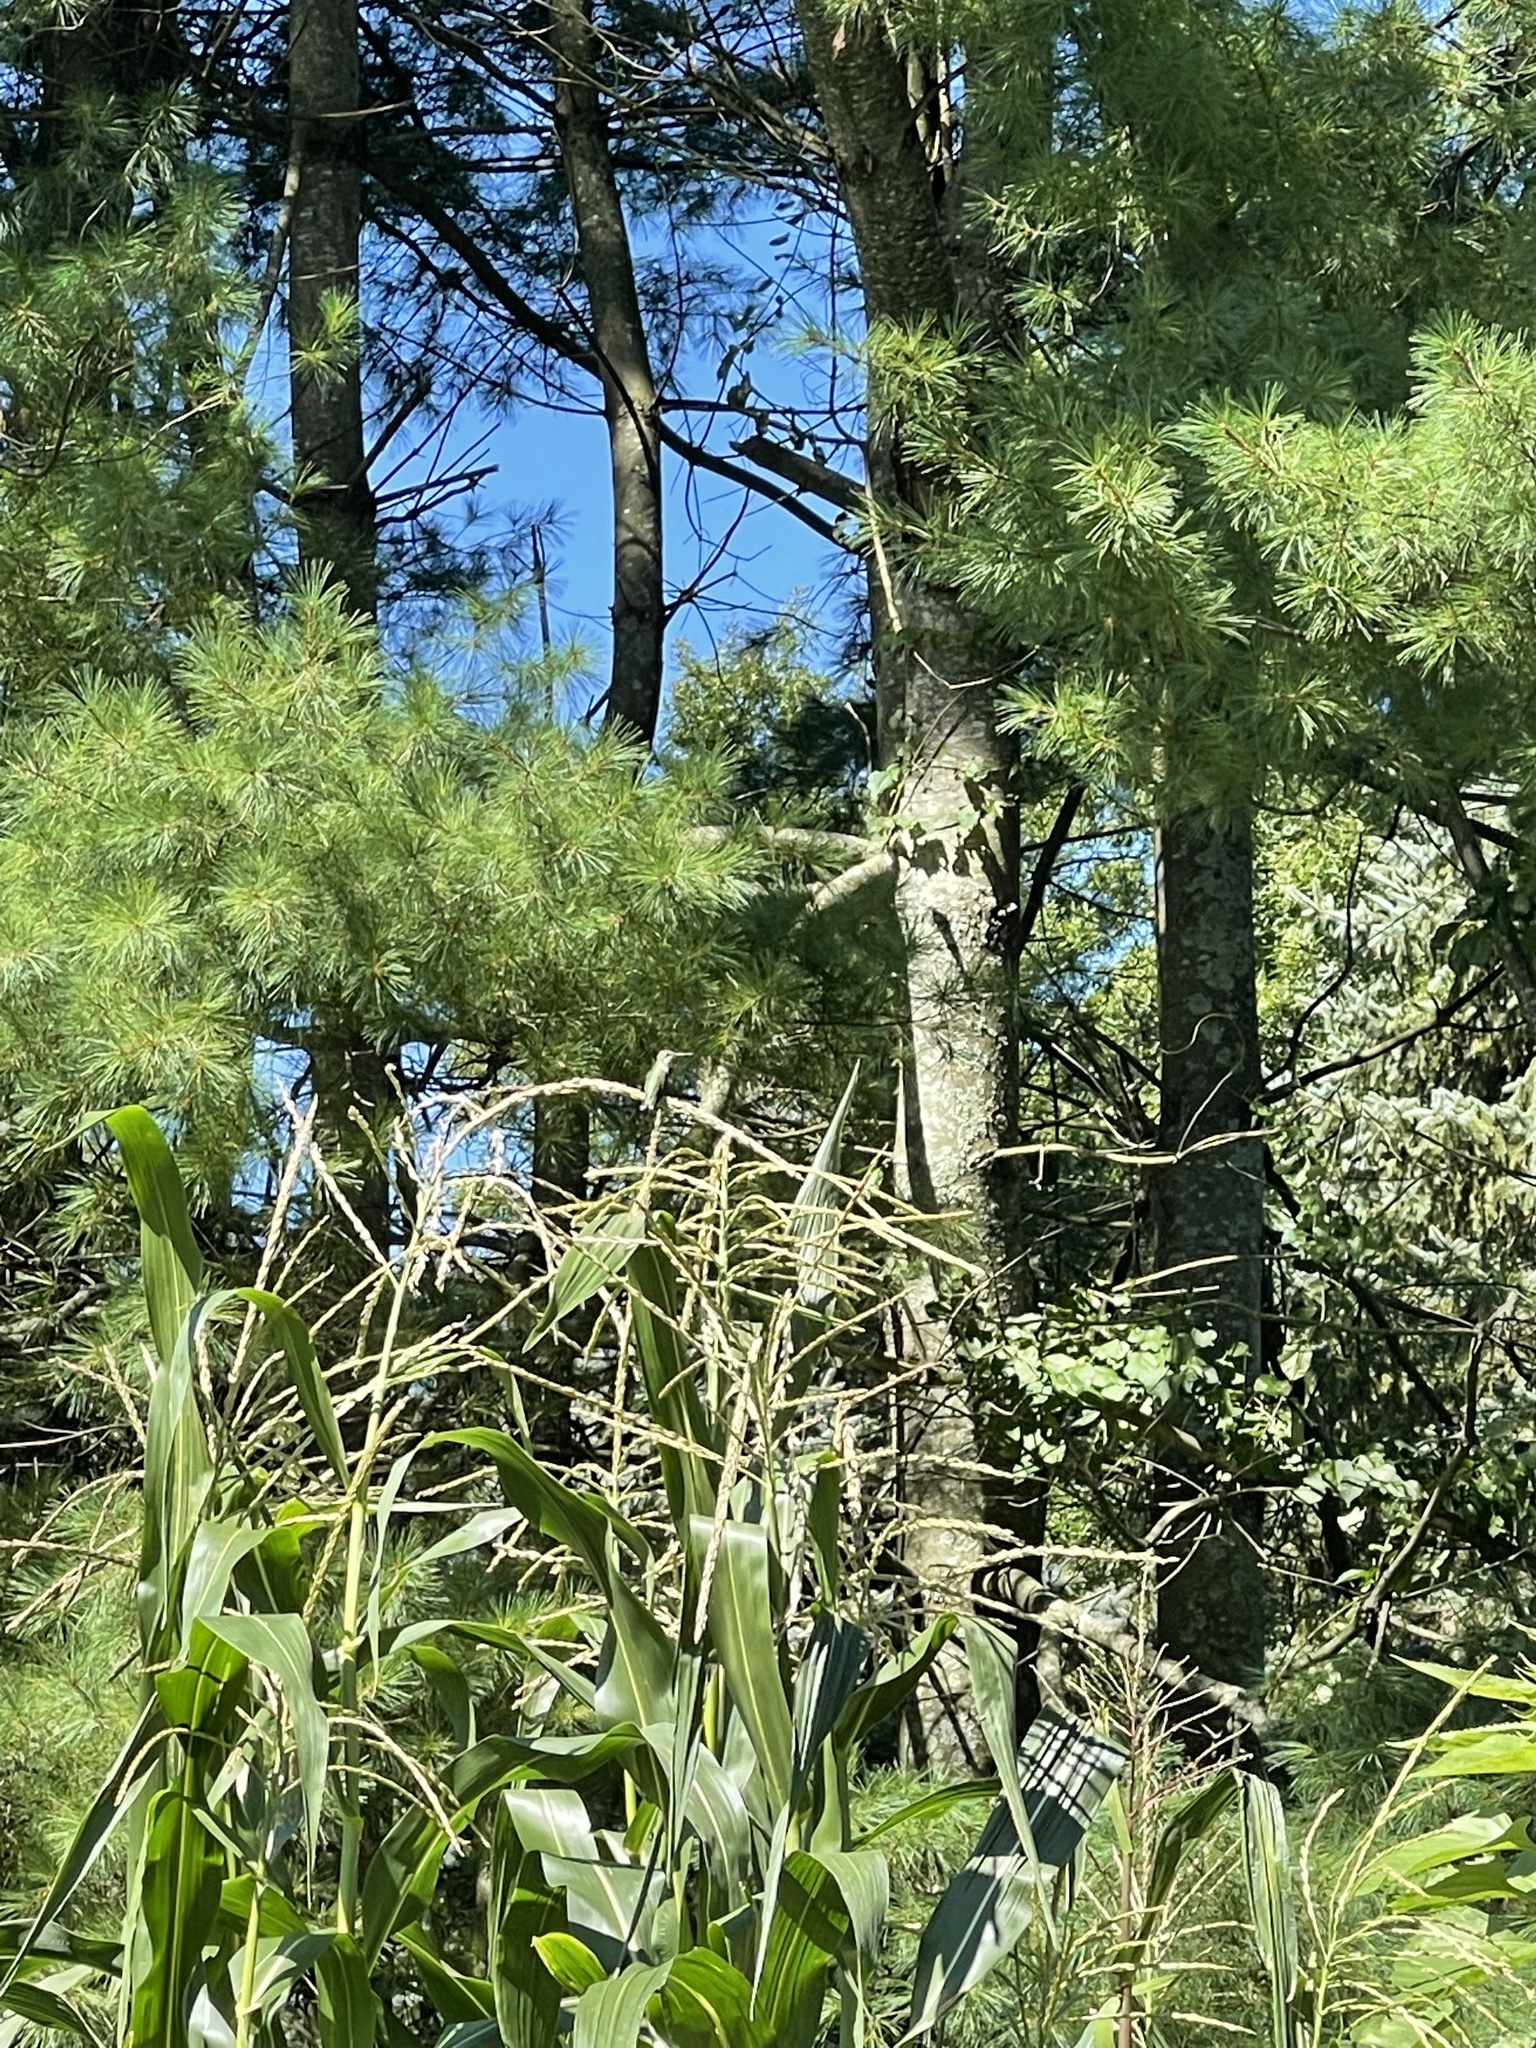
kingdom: Animalia
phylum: Chordata
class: Aves
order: Apodiformes
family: Trochilidae
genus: Archilochus
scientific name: Archilochus colubris
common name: Ruby-throated hummingbird
